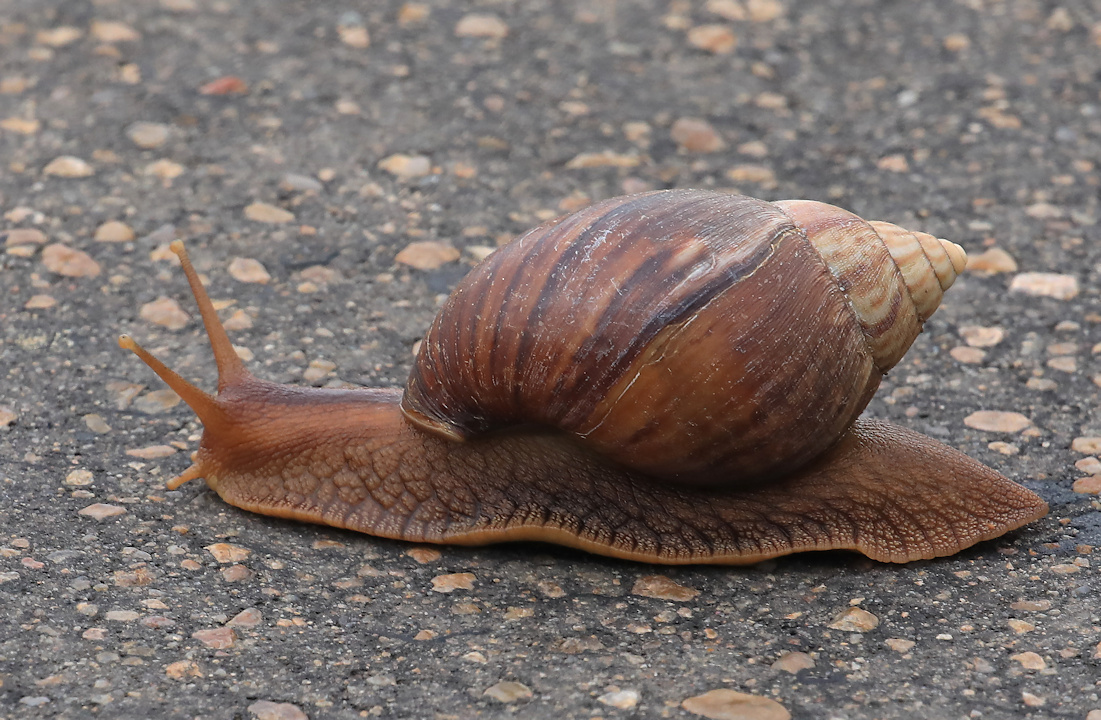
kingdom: Animalia
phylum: Mollusca
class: Gastropoda
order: Stylommatophora
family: Achatinidae
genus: Lissachatina
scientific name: Lissachatina immaculata
